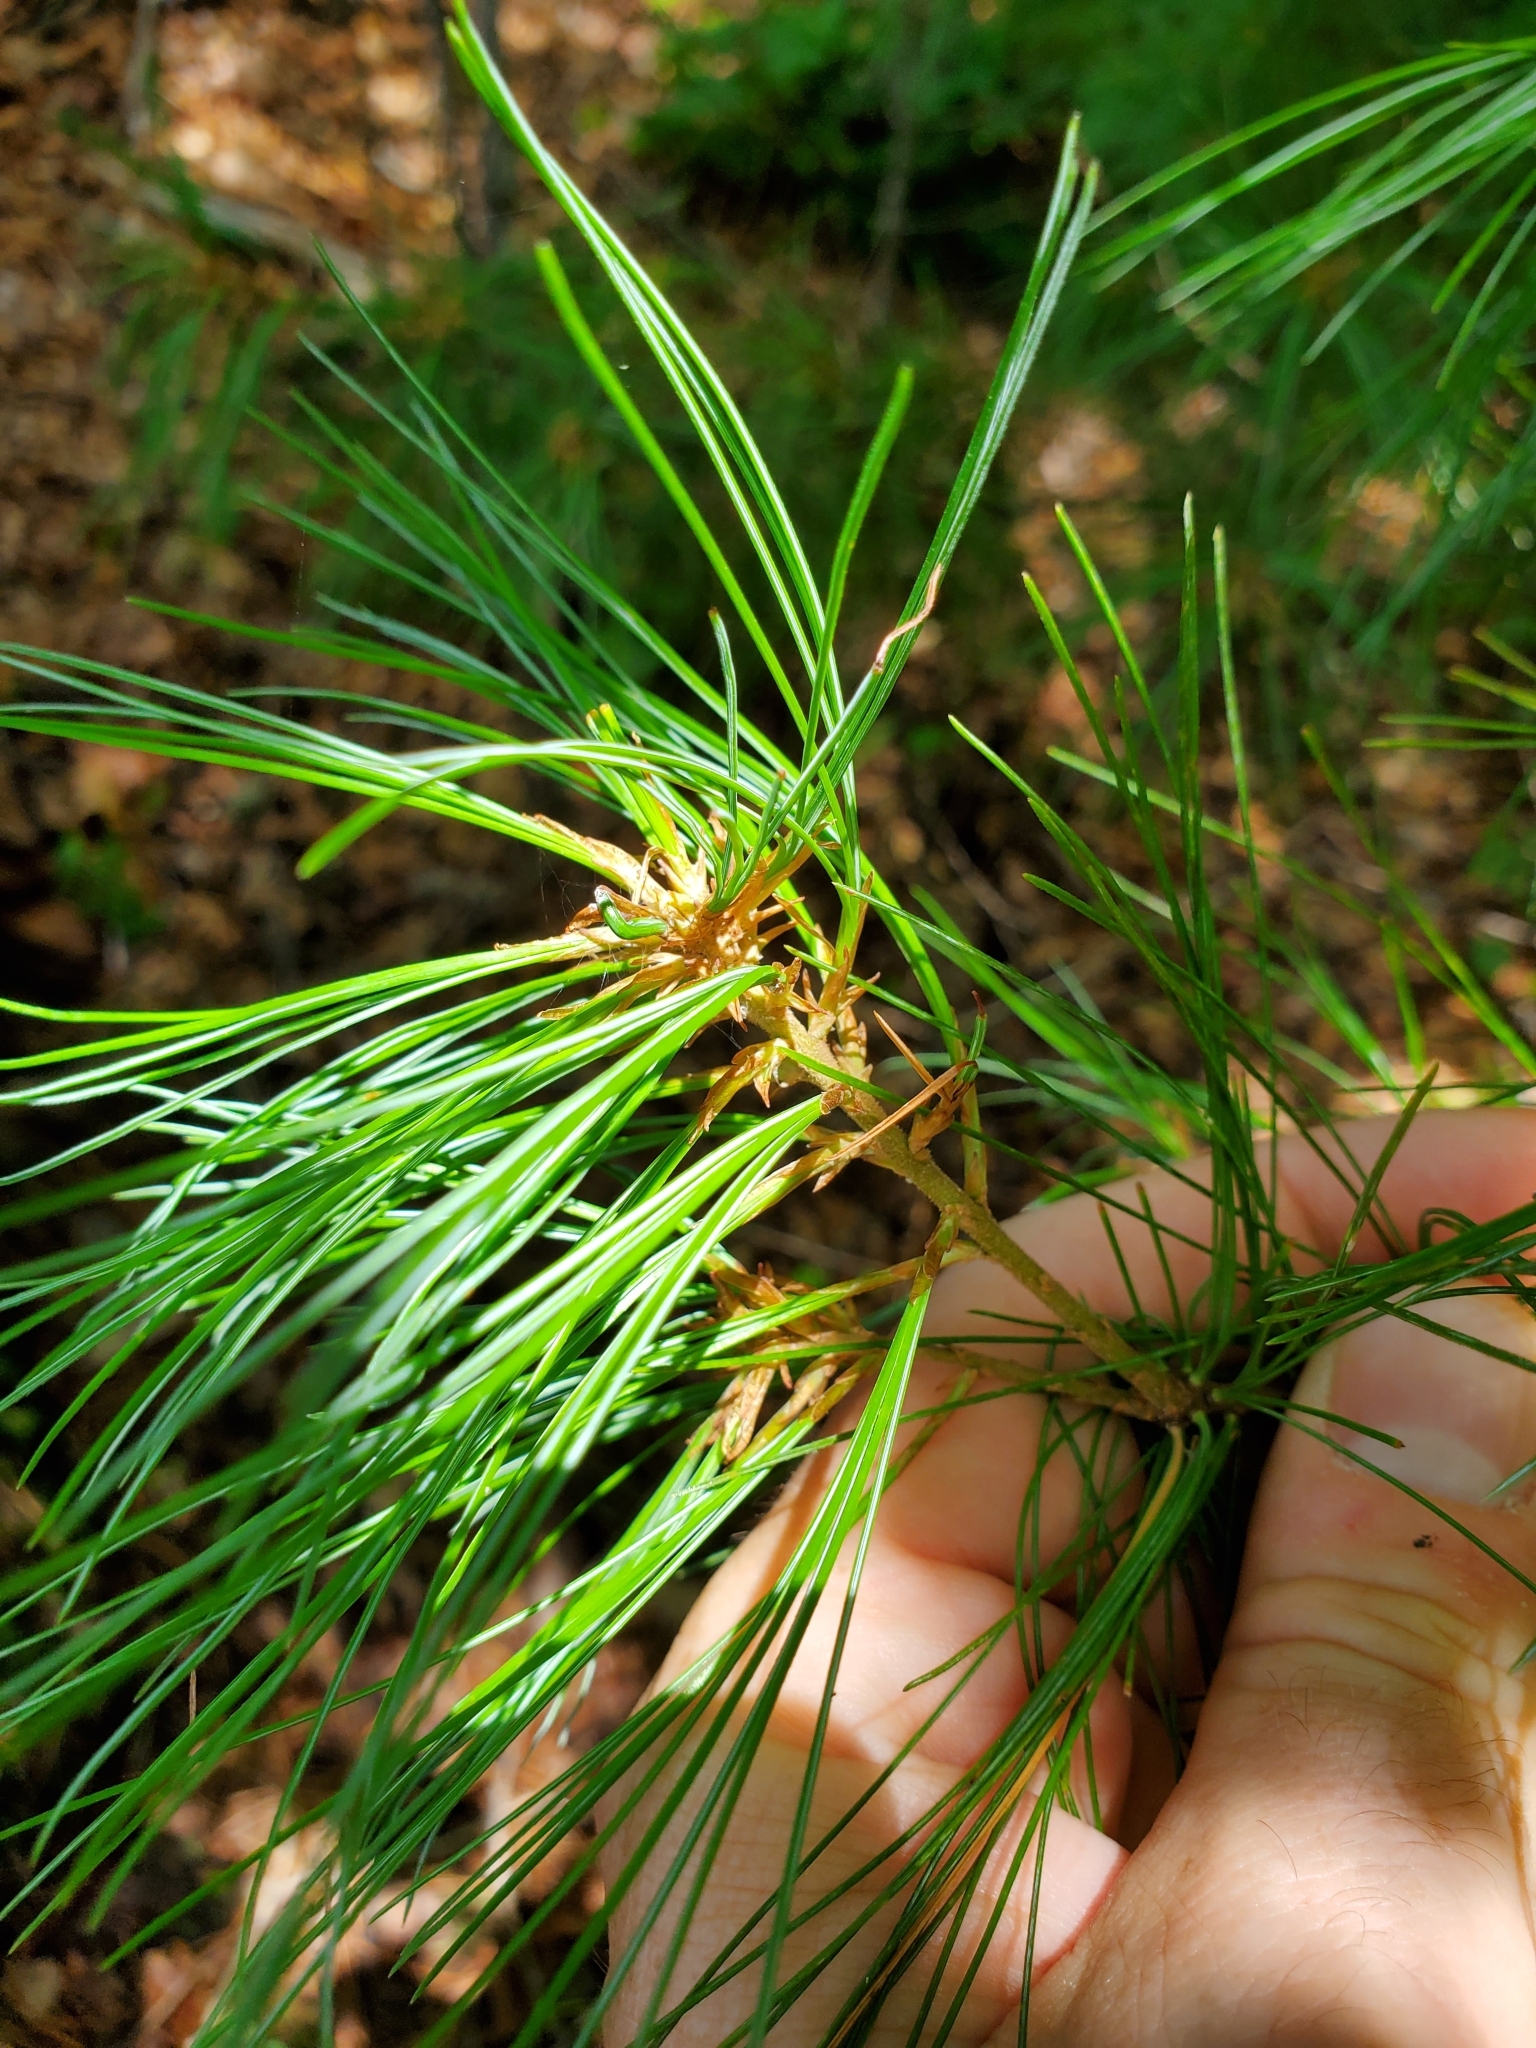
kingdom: Plantae
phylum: Tracheophyta
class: Pinopsida
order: Pinales
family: Pinaceae
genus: Pinus
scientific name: Pinus strobus
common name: Weymouth pine
